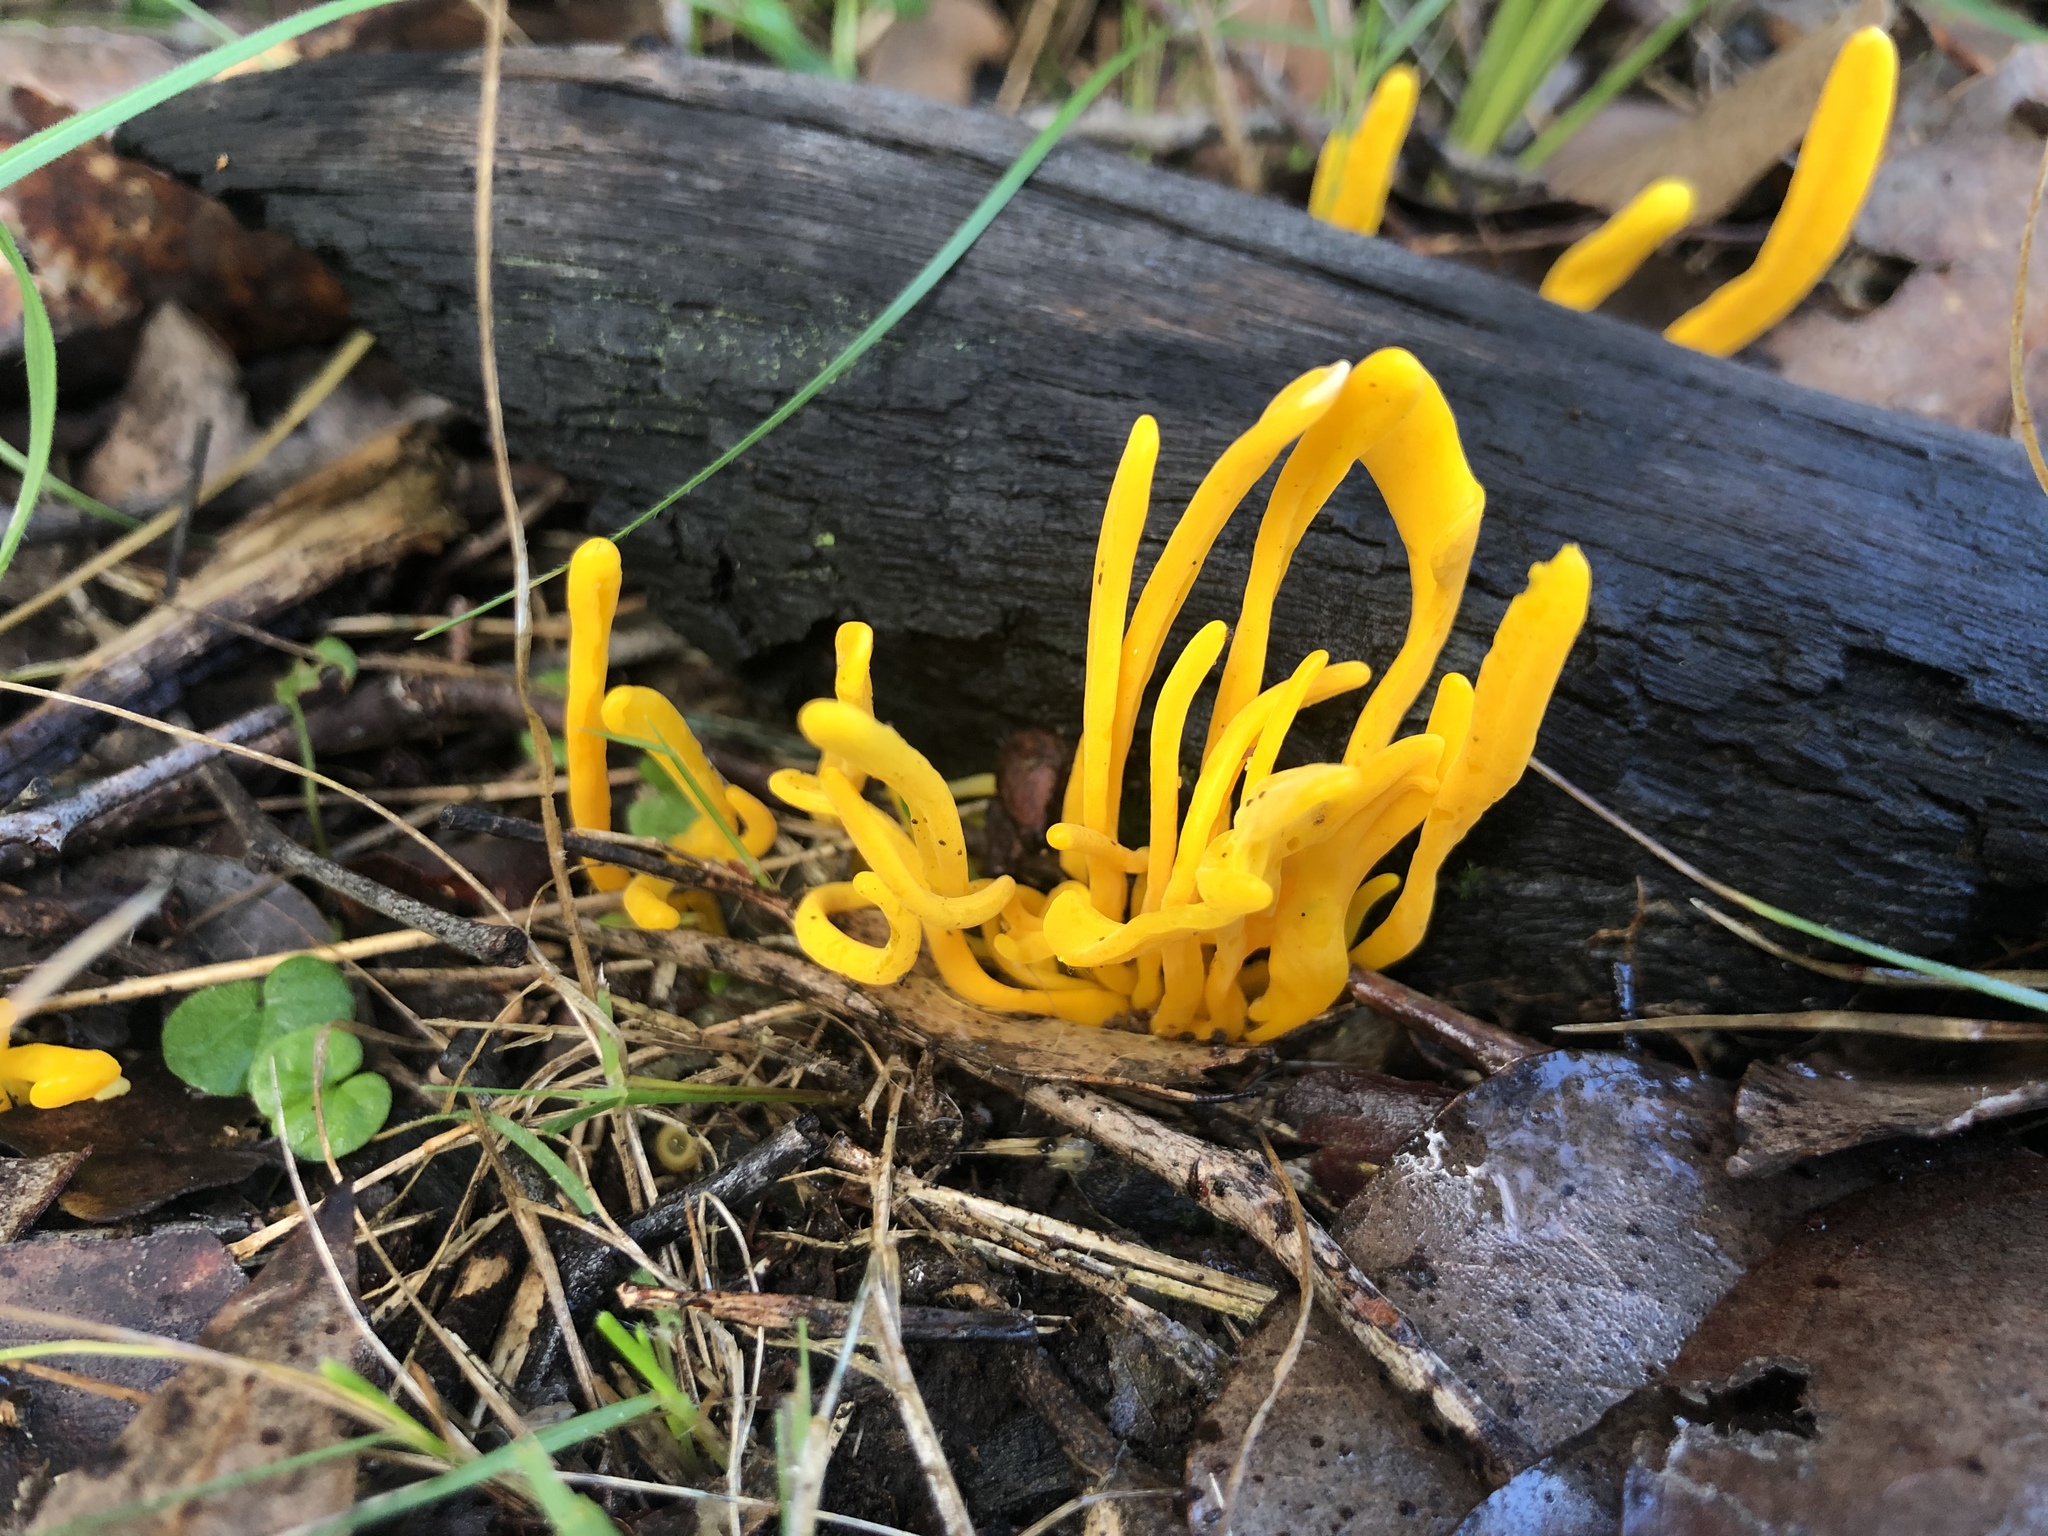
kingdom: Fungi
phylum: Basidiomycota
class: Agaricomycetes
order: Agaricales
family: Clavariaceae
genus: Clavulinopsis
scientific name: Clavulinopsis amoena
